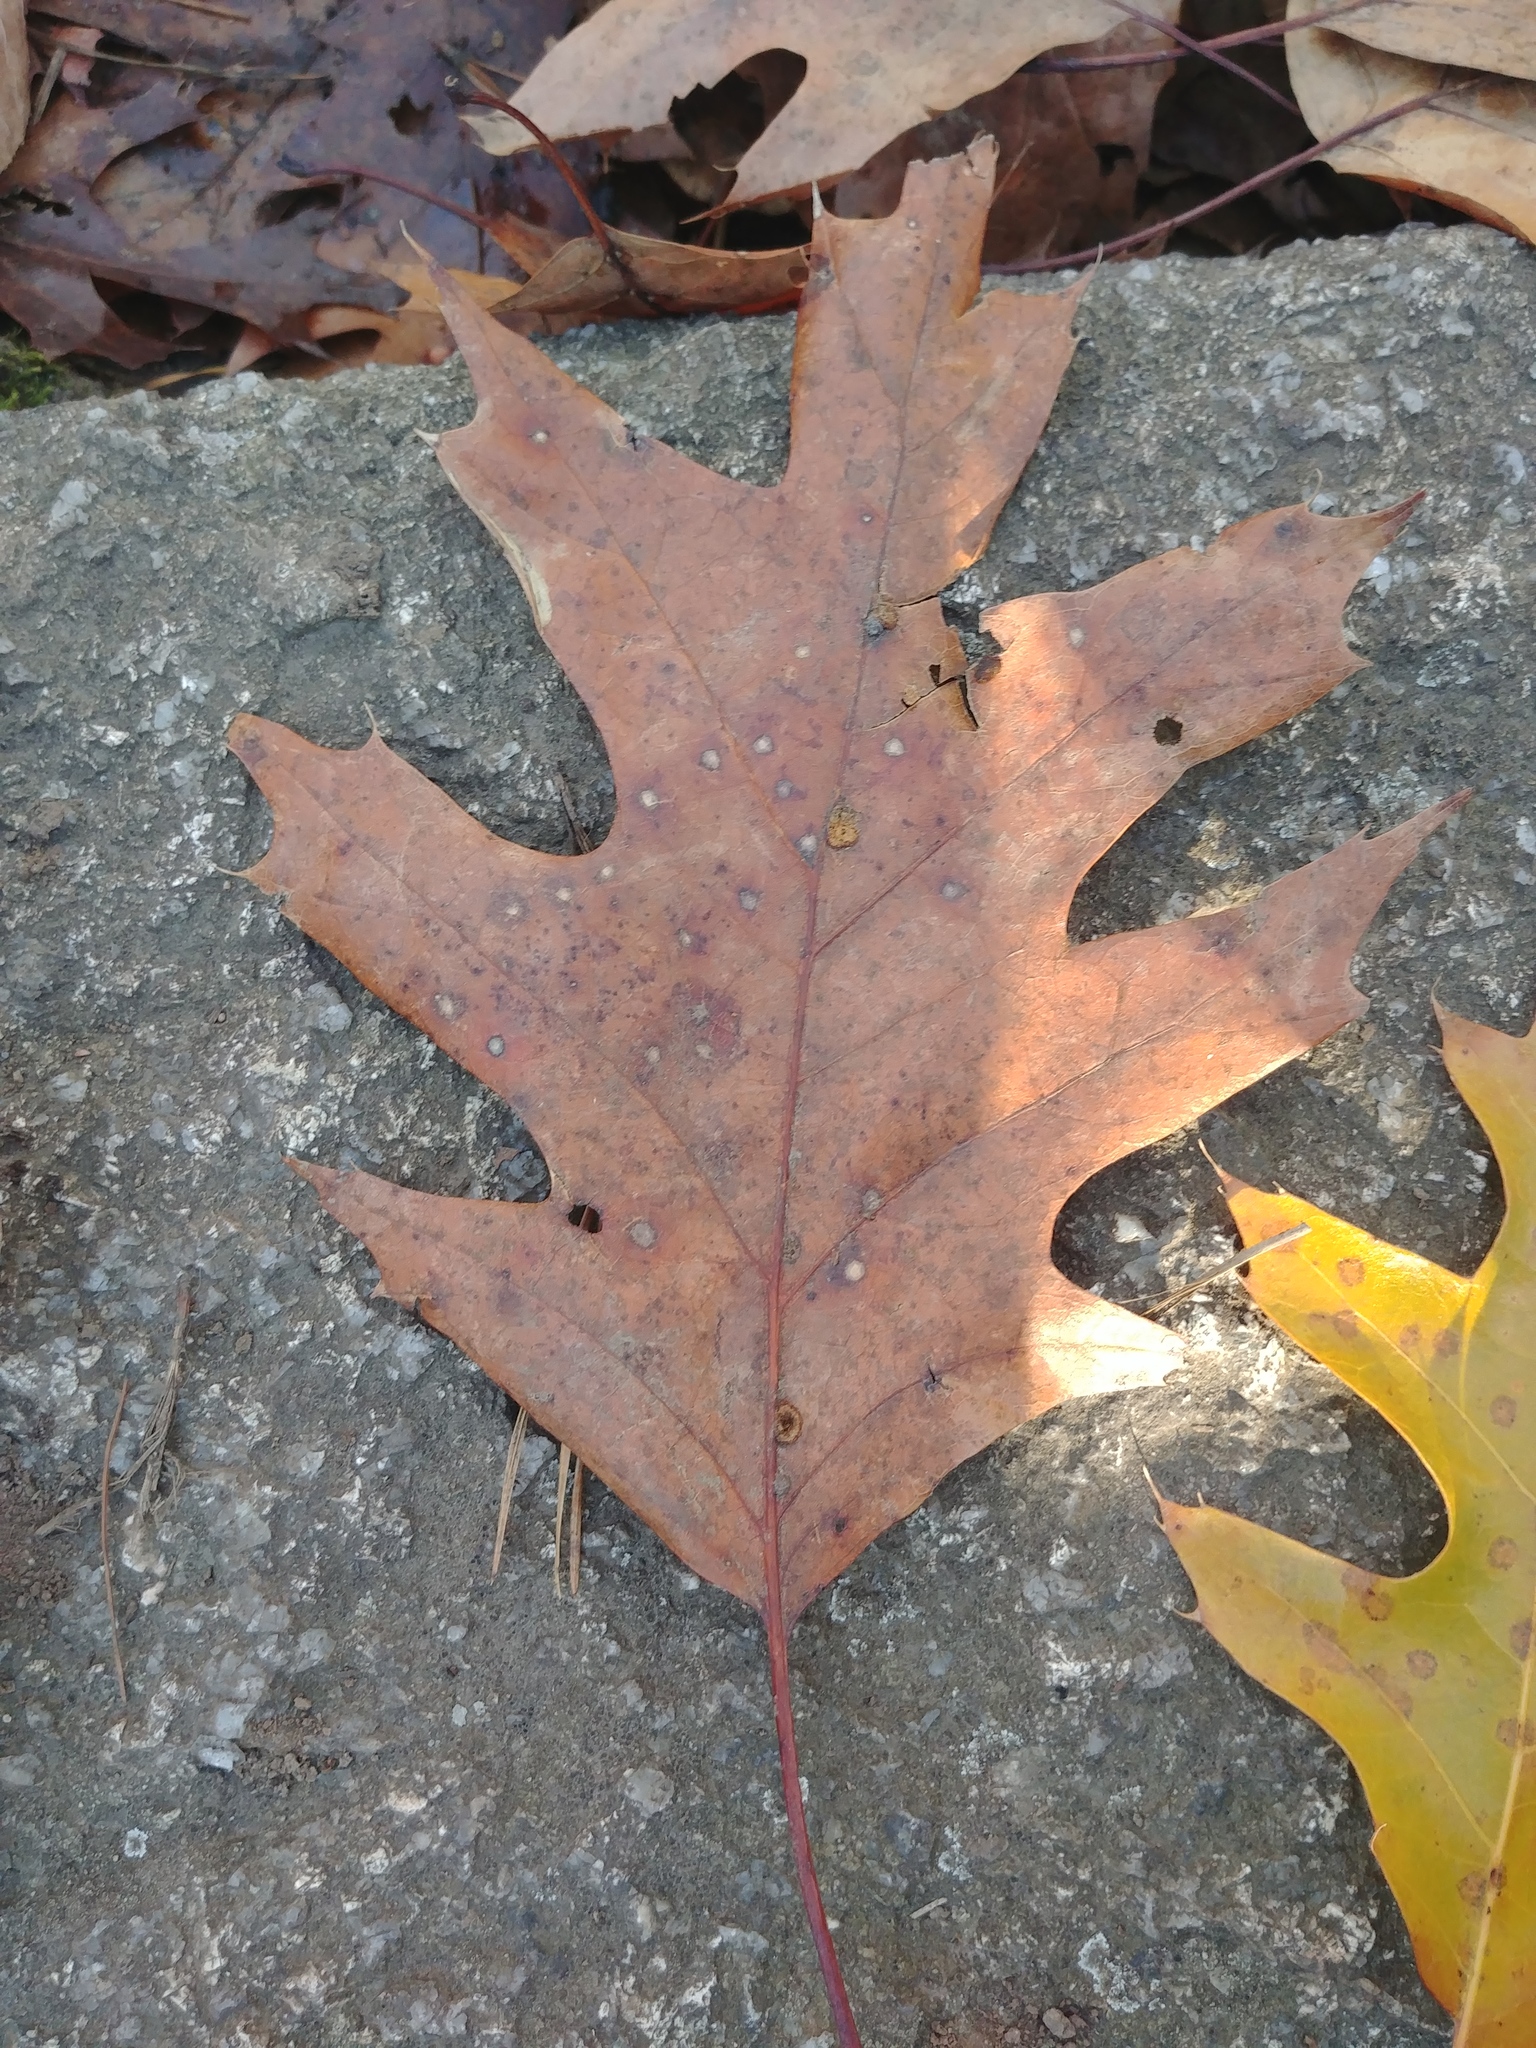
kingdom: Plantae
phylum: Tracheophyta
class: Magnoliopsida
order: Fagales
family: Fagaceae
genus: Quercus
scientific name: Quercus rubra
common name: Red oak
